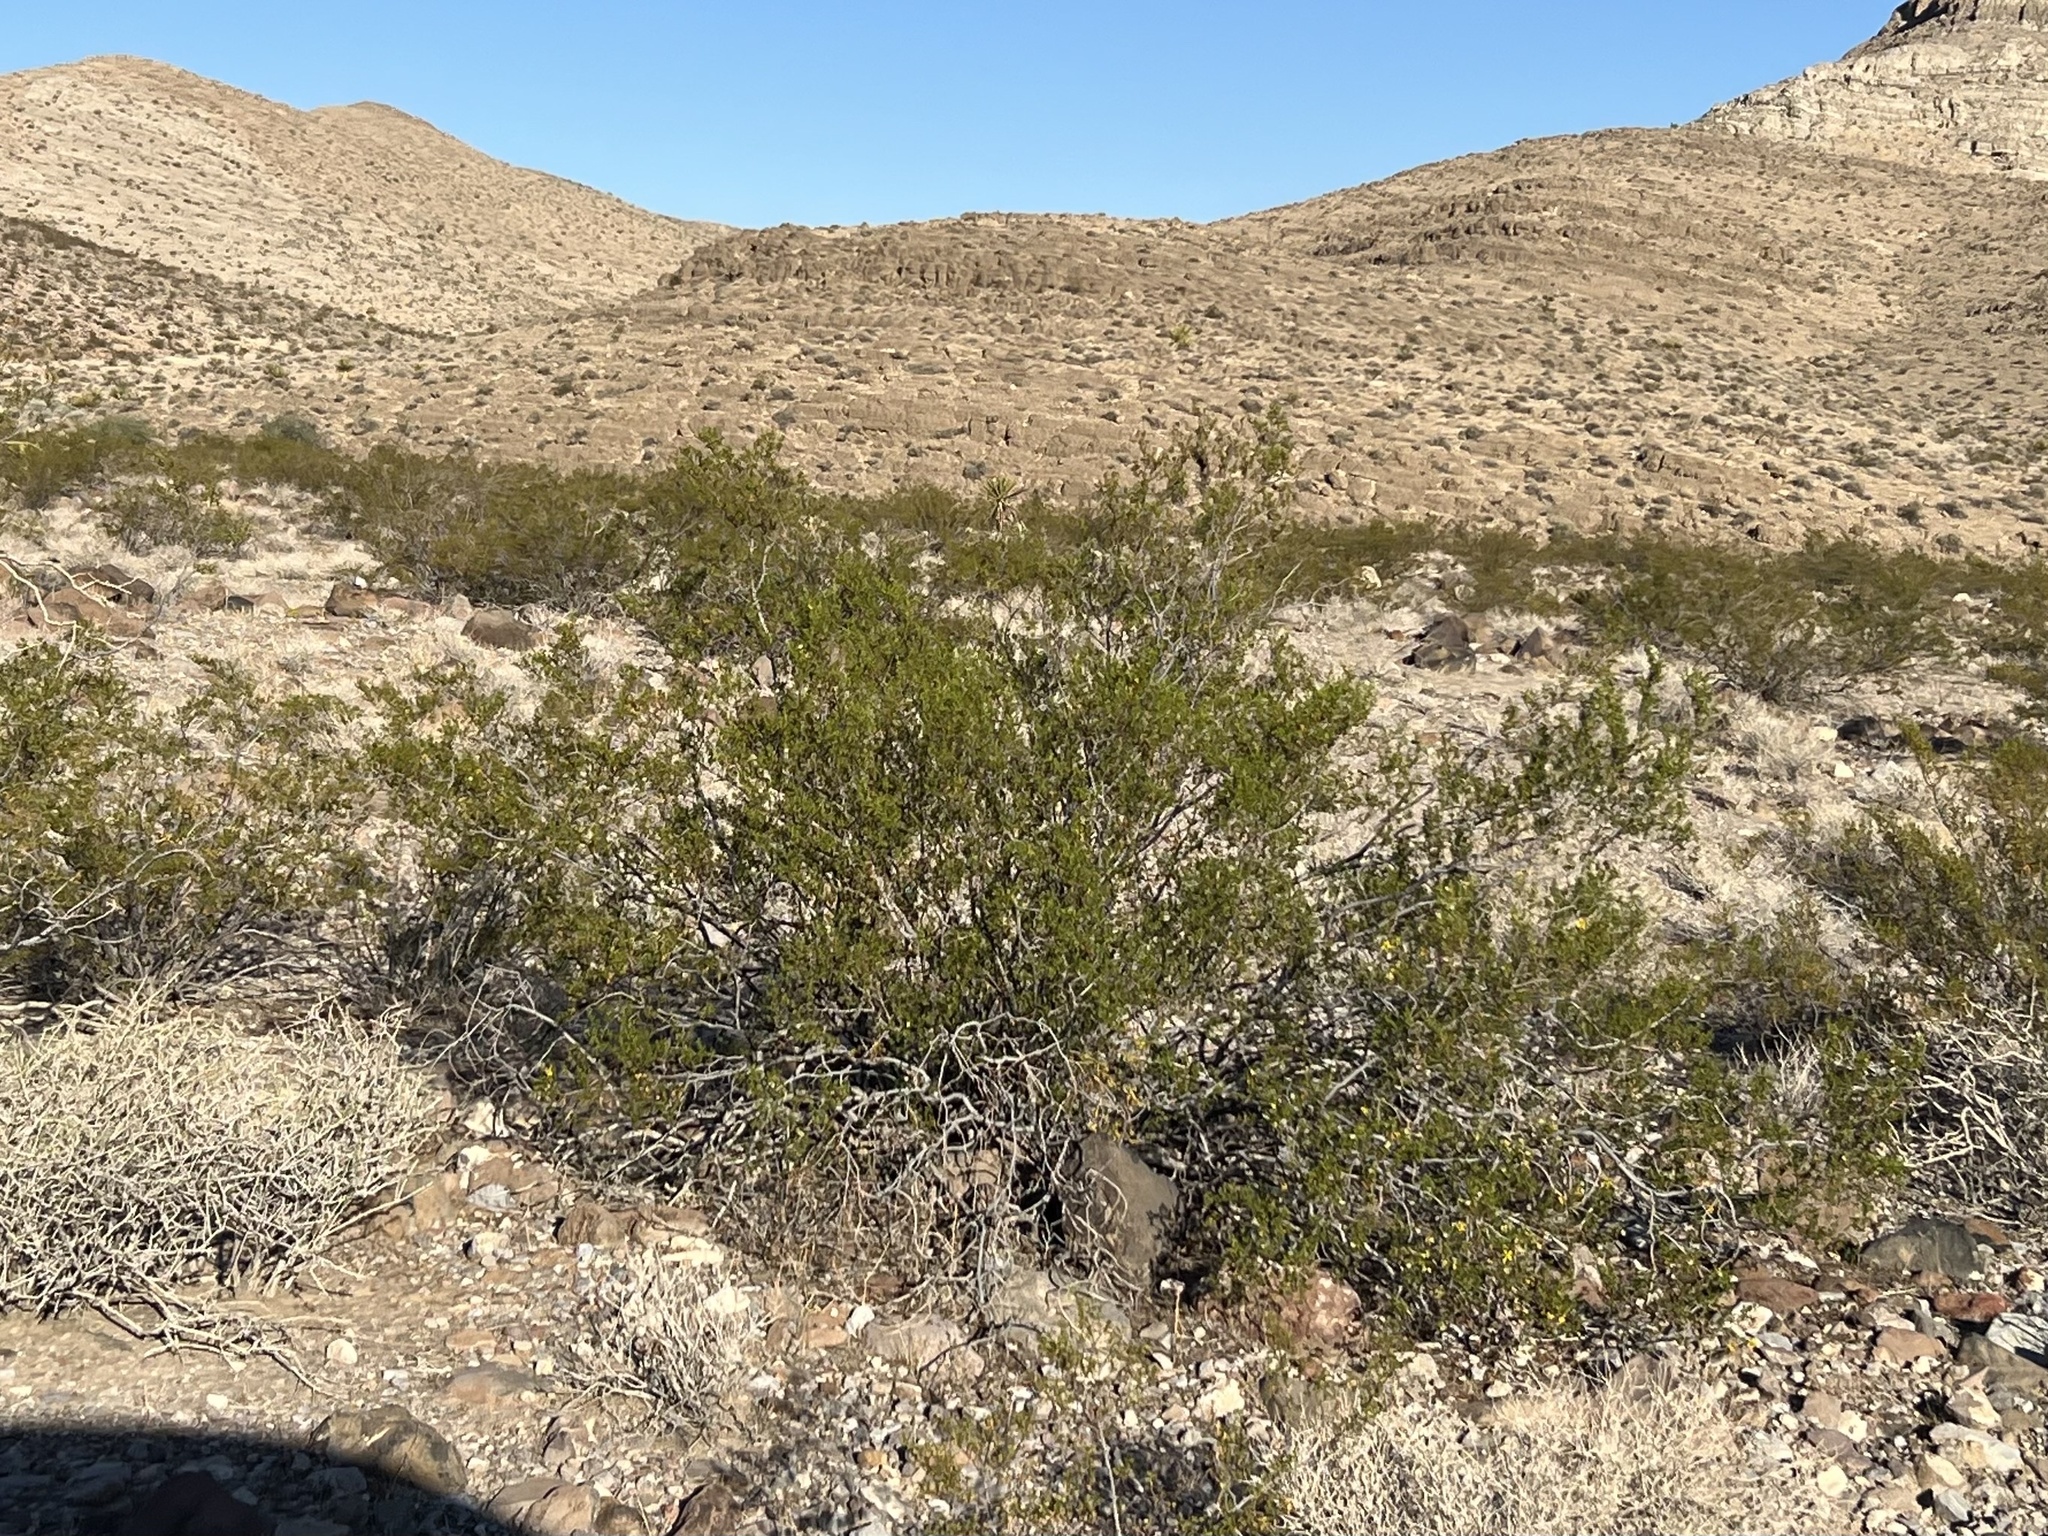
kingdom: Plantae
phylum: Tracheophyta
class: Magnoliopsida
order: Zygophyllales
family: Zygophyllaceae
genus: Larrea
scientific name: Larrea tridentata
